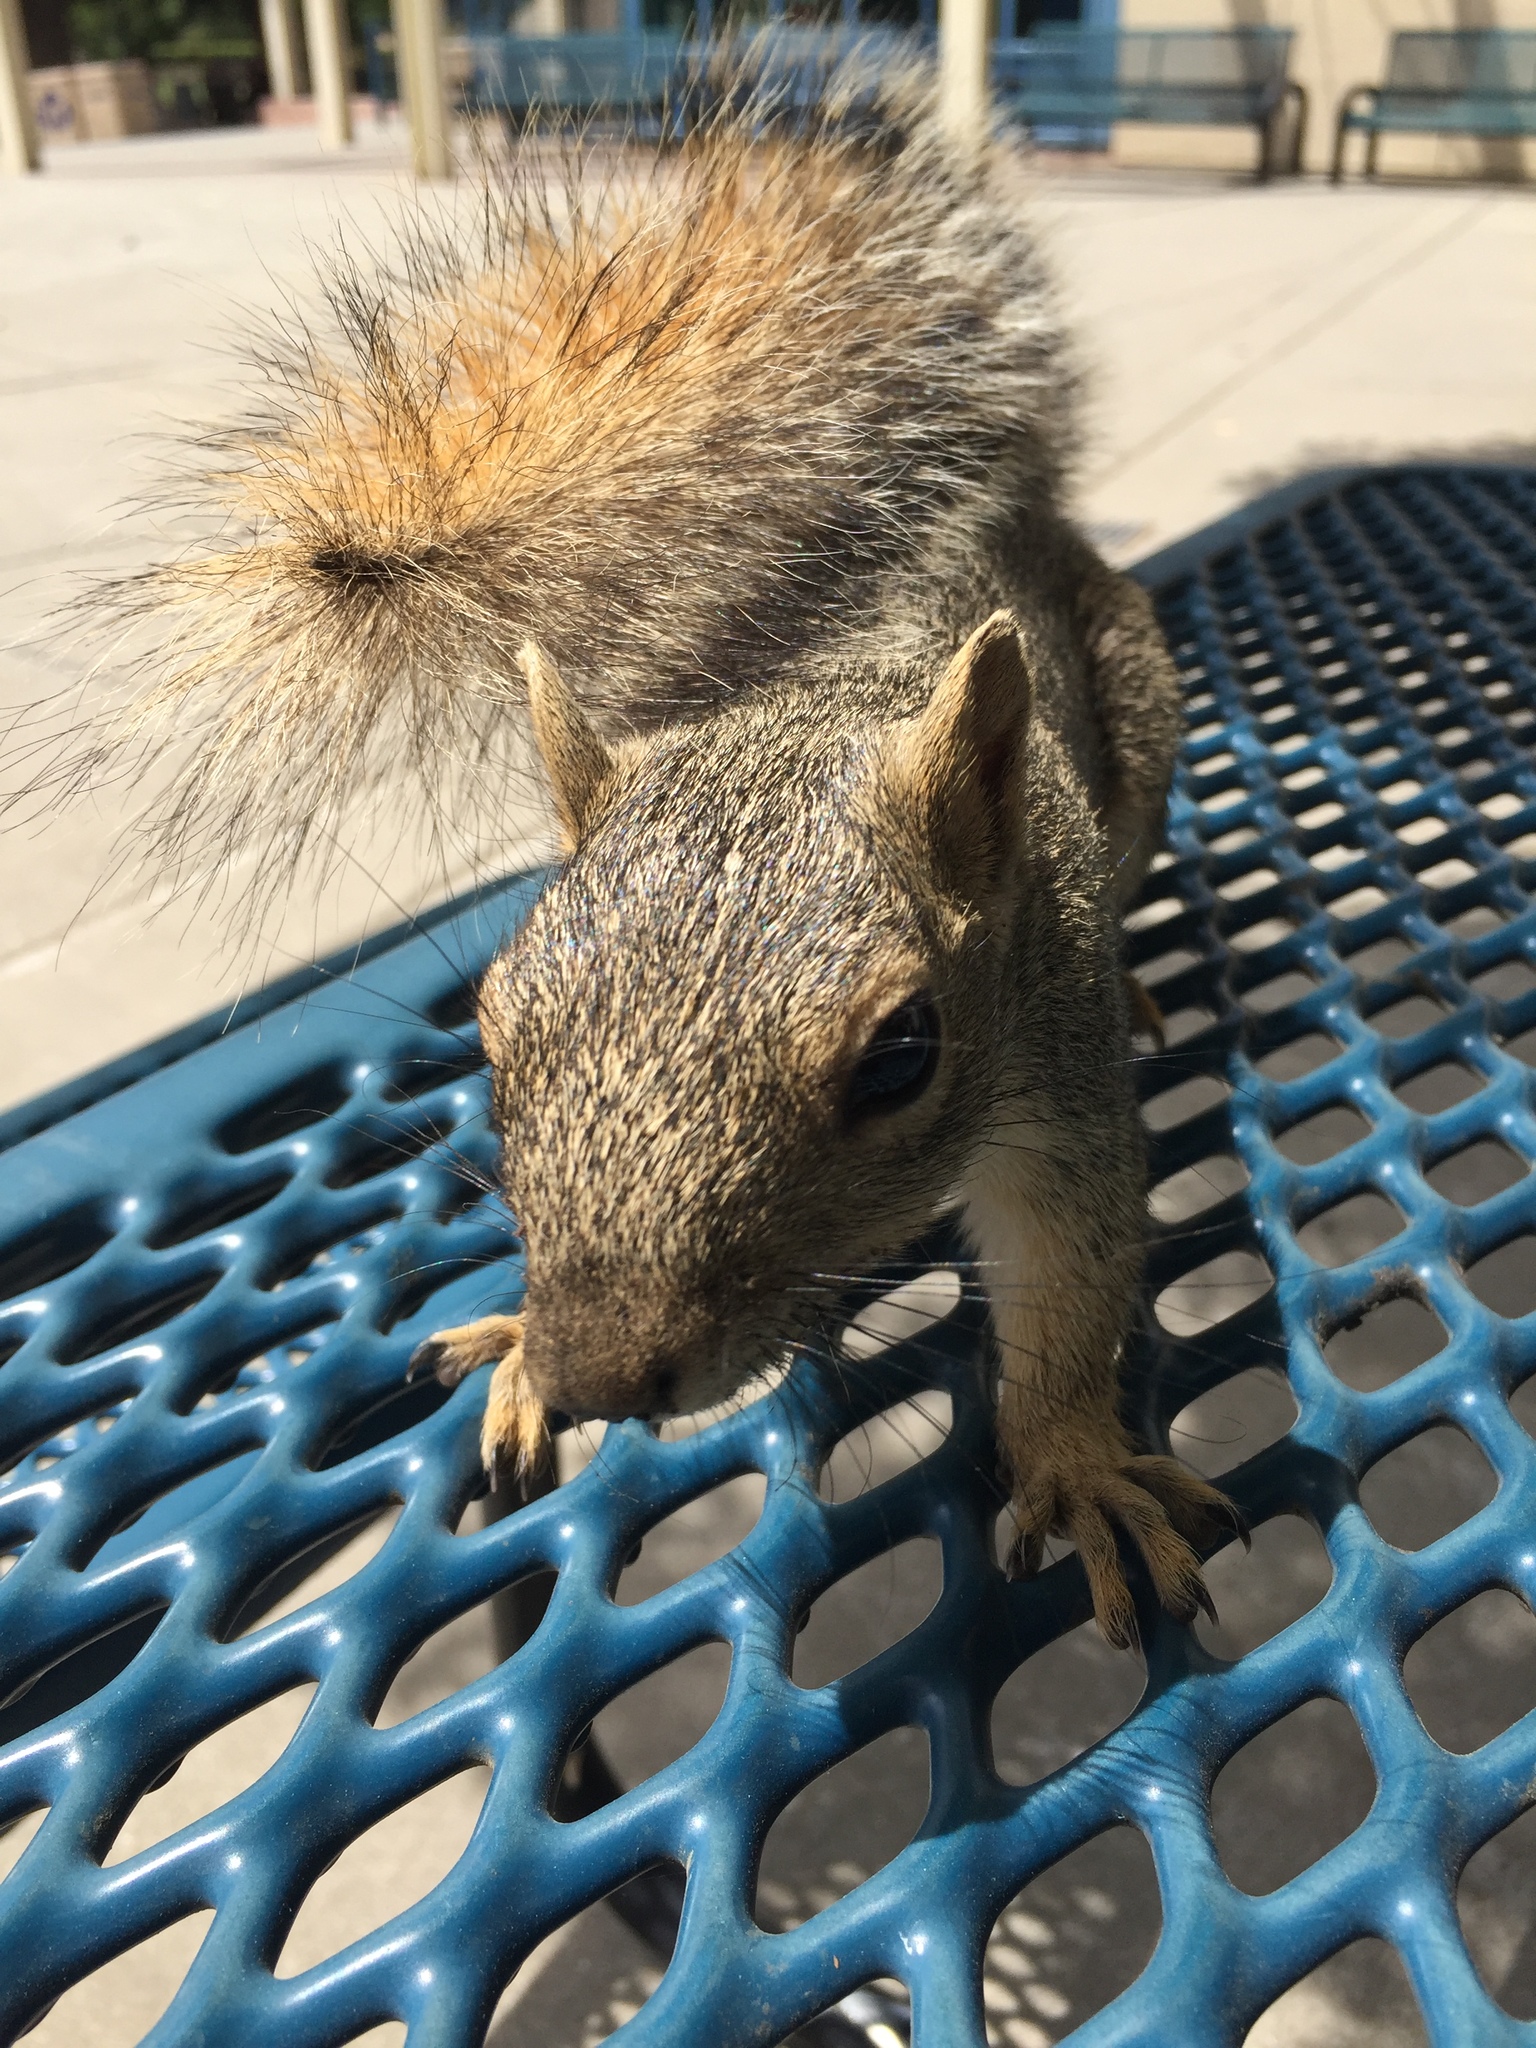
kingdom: Animalia
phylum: Chordata
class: Mammalia
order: Rodentia
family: Sciuridae
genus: Sciurus
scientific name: Sciurus niger
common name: Fox squirrel
